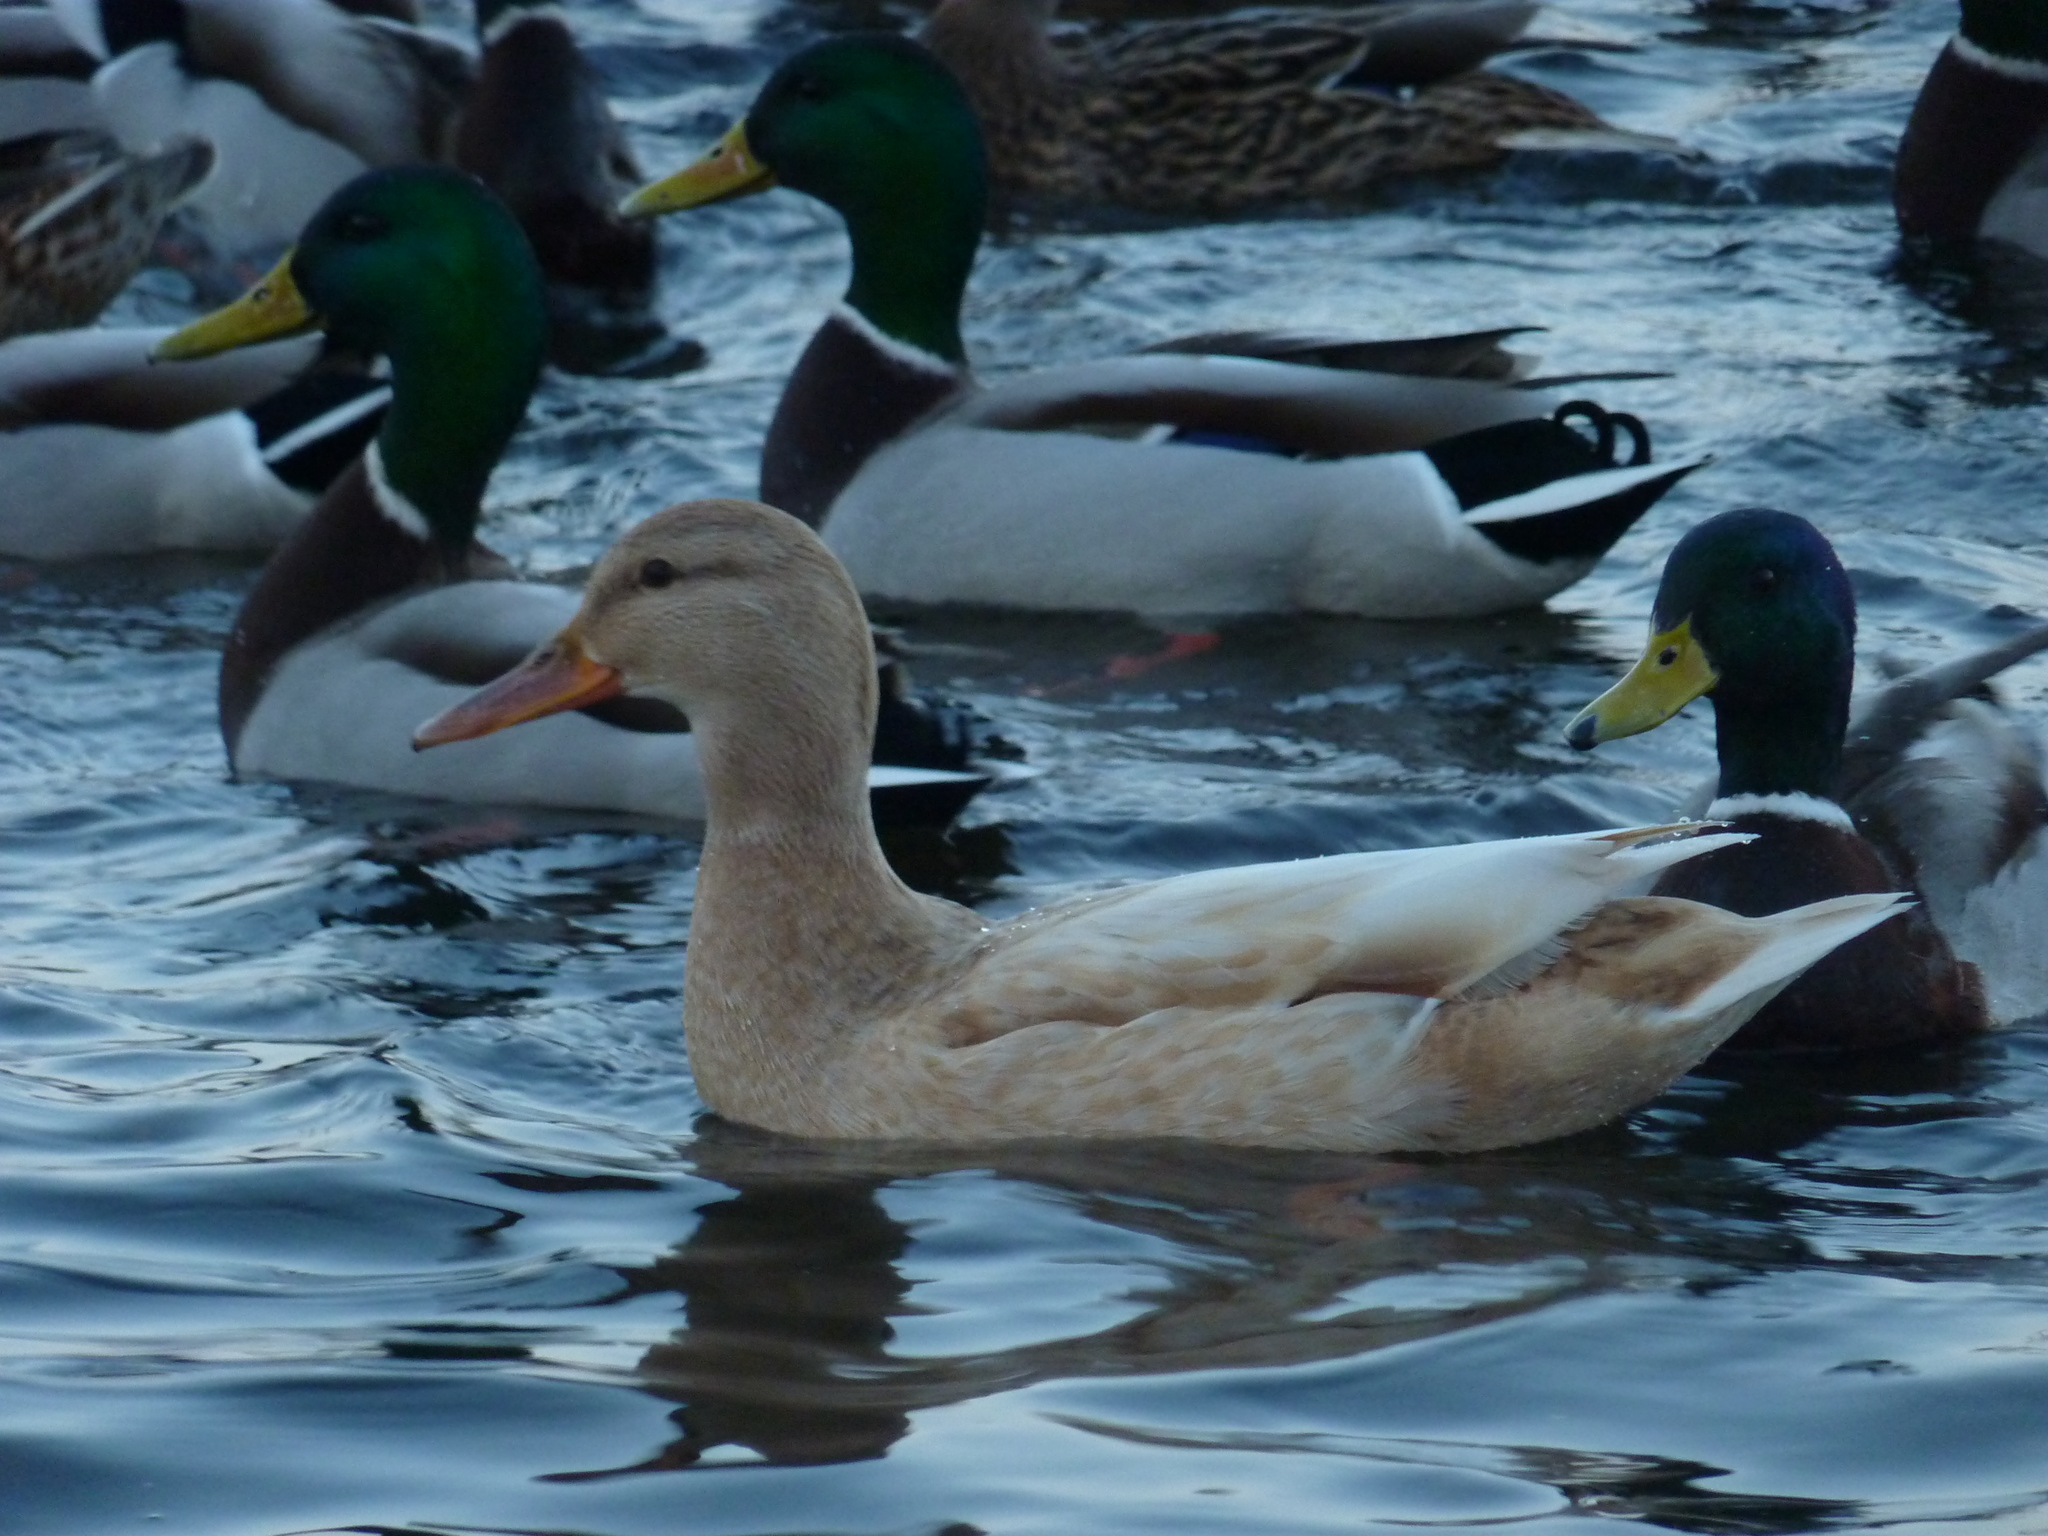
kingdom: Animalia
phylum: Chordata
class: Aves
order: Anseriformes
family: Anatidae
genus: Anas
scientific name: Anas platyrhynchos
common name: Mallard
